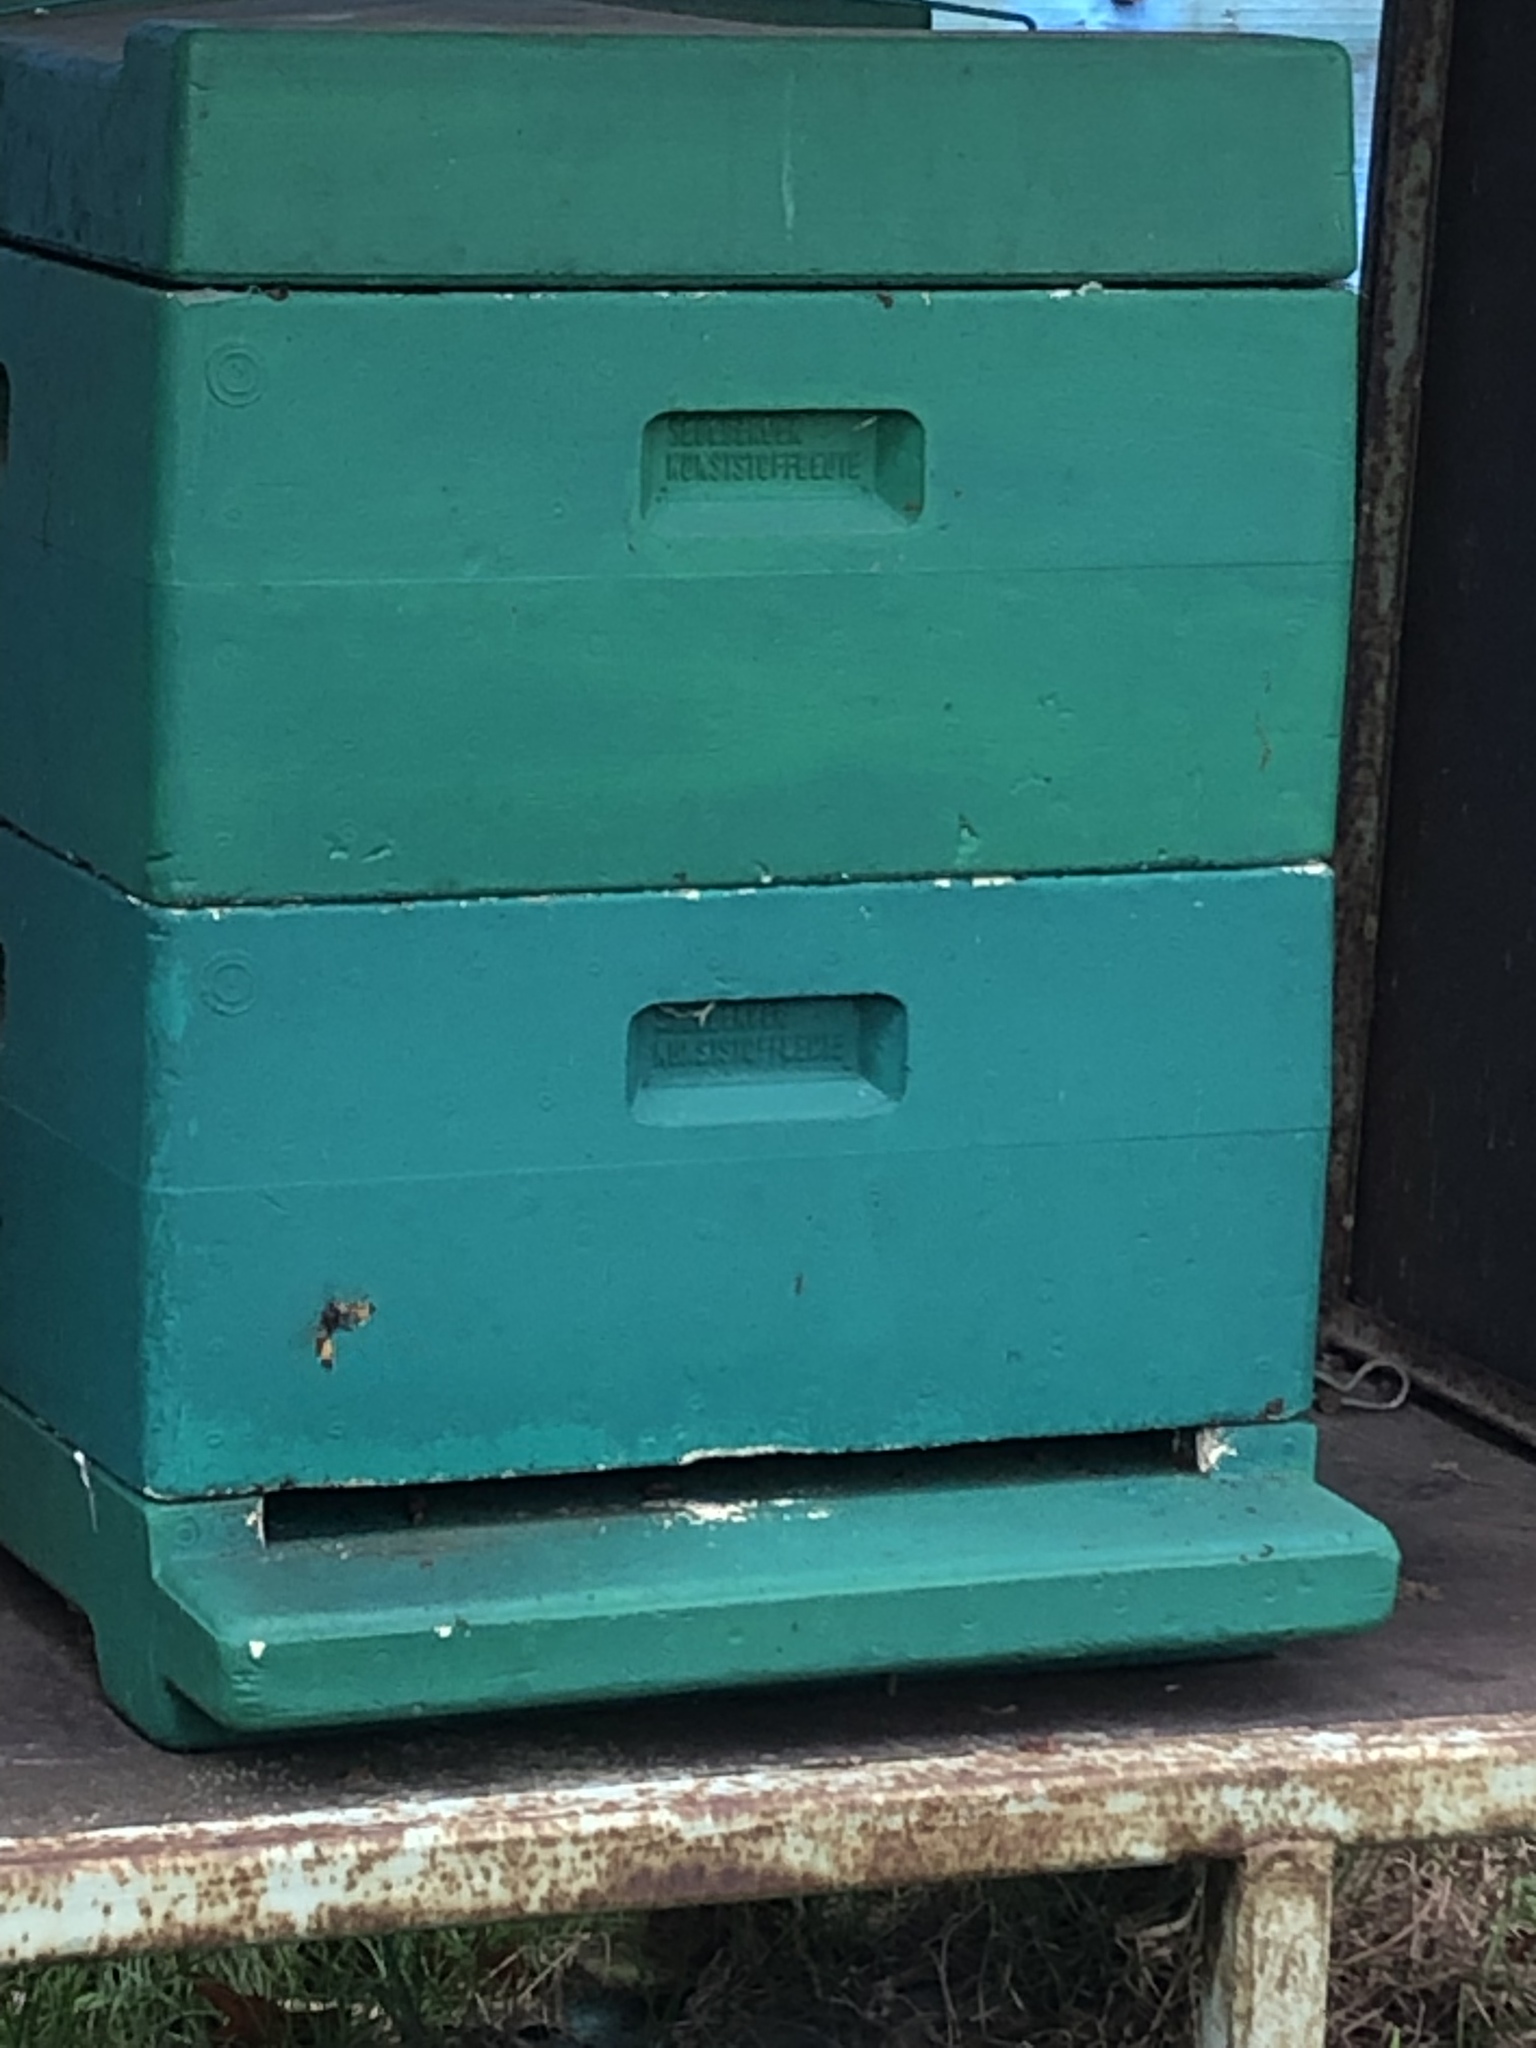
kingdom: Animalia
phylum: Arthropoda
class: Insecta
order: Hymenoptera
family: Vespidae
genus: Vespa
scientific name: Vespa velutina
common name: Asian hornet
